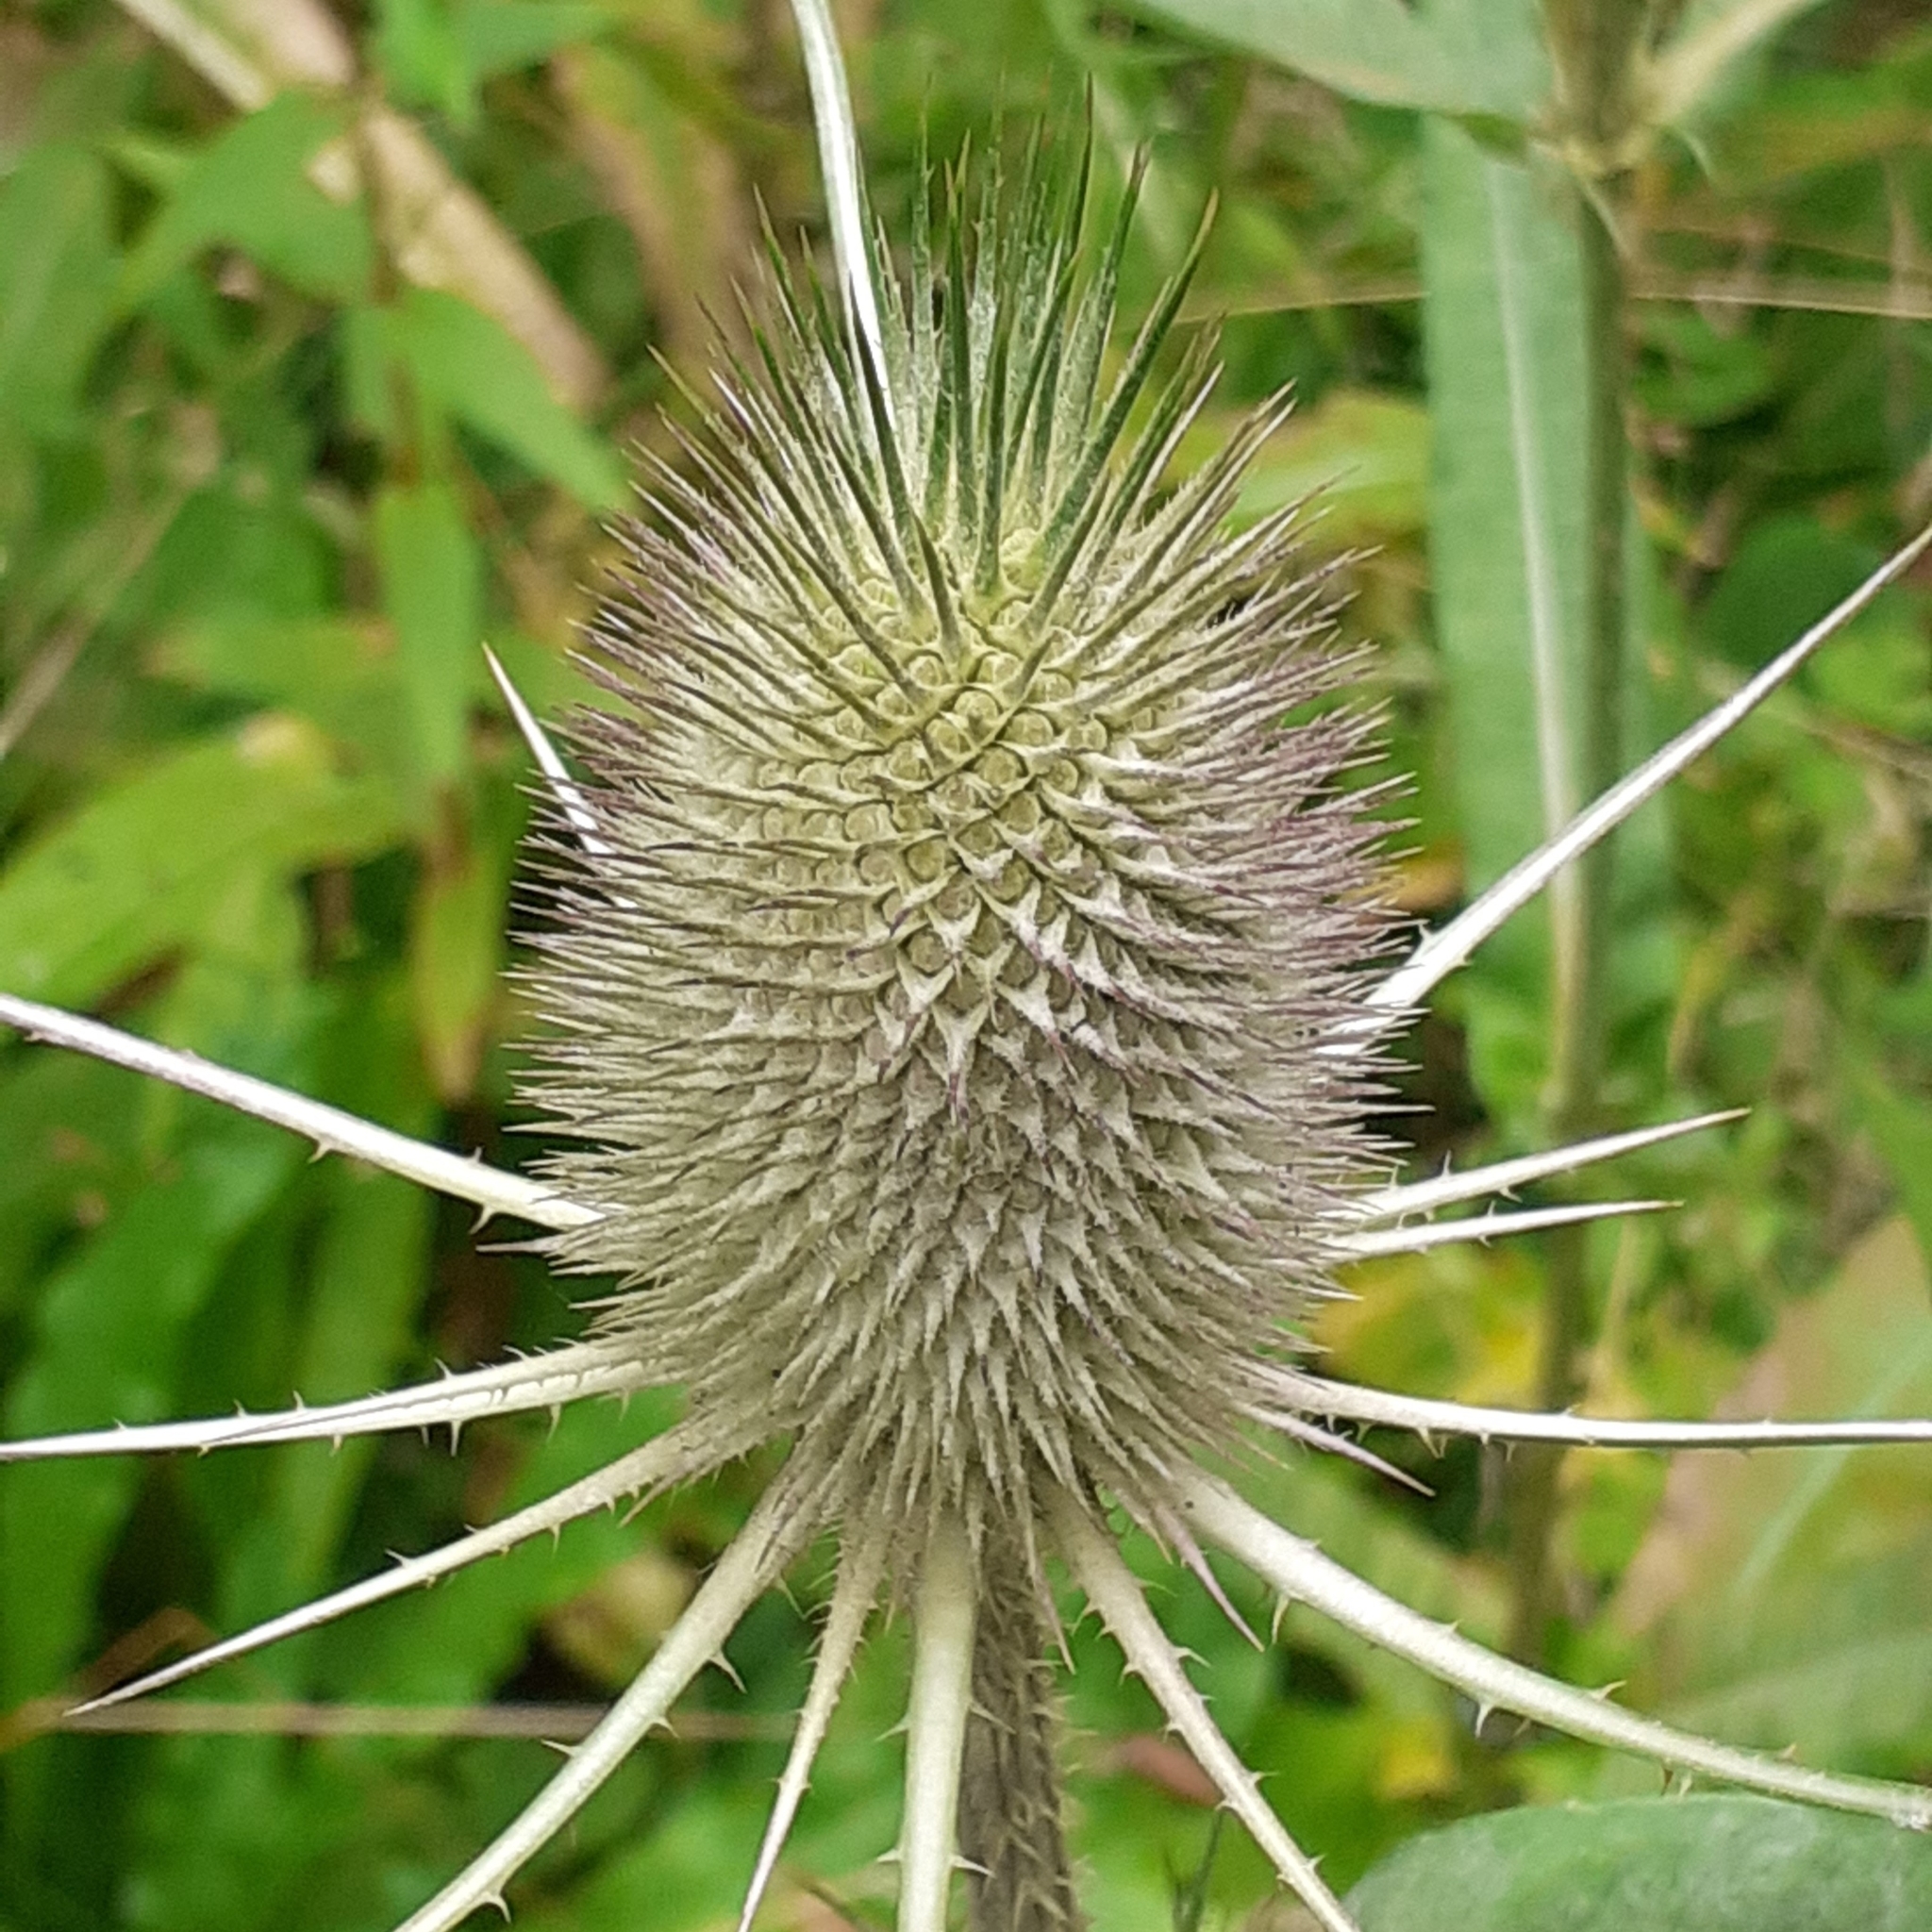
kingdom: Plantae
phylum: Tracheophyta
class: Magnoliopsida
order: Dipsacales
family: Caprifoliaceae
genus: Dipsacus
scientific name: Dipsacus fullonum
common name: Teasel
